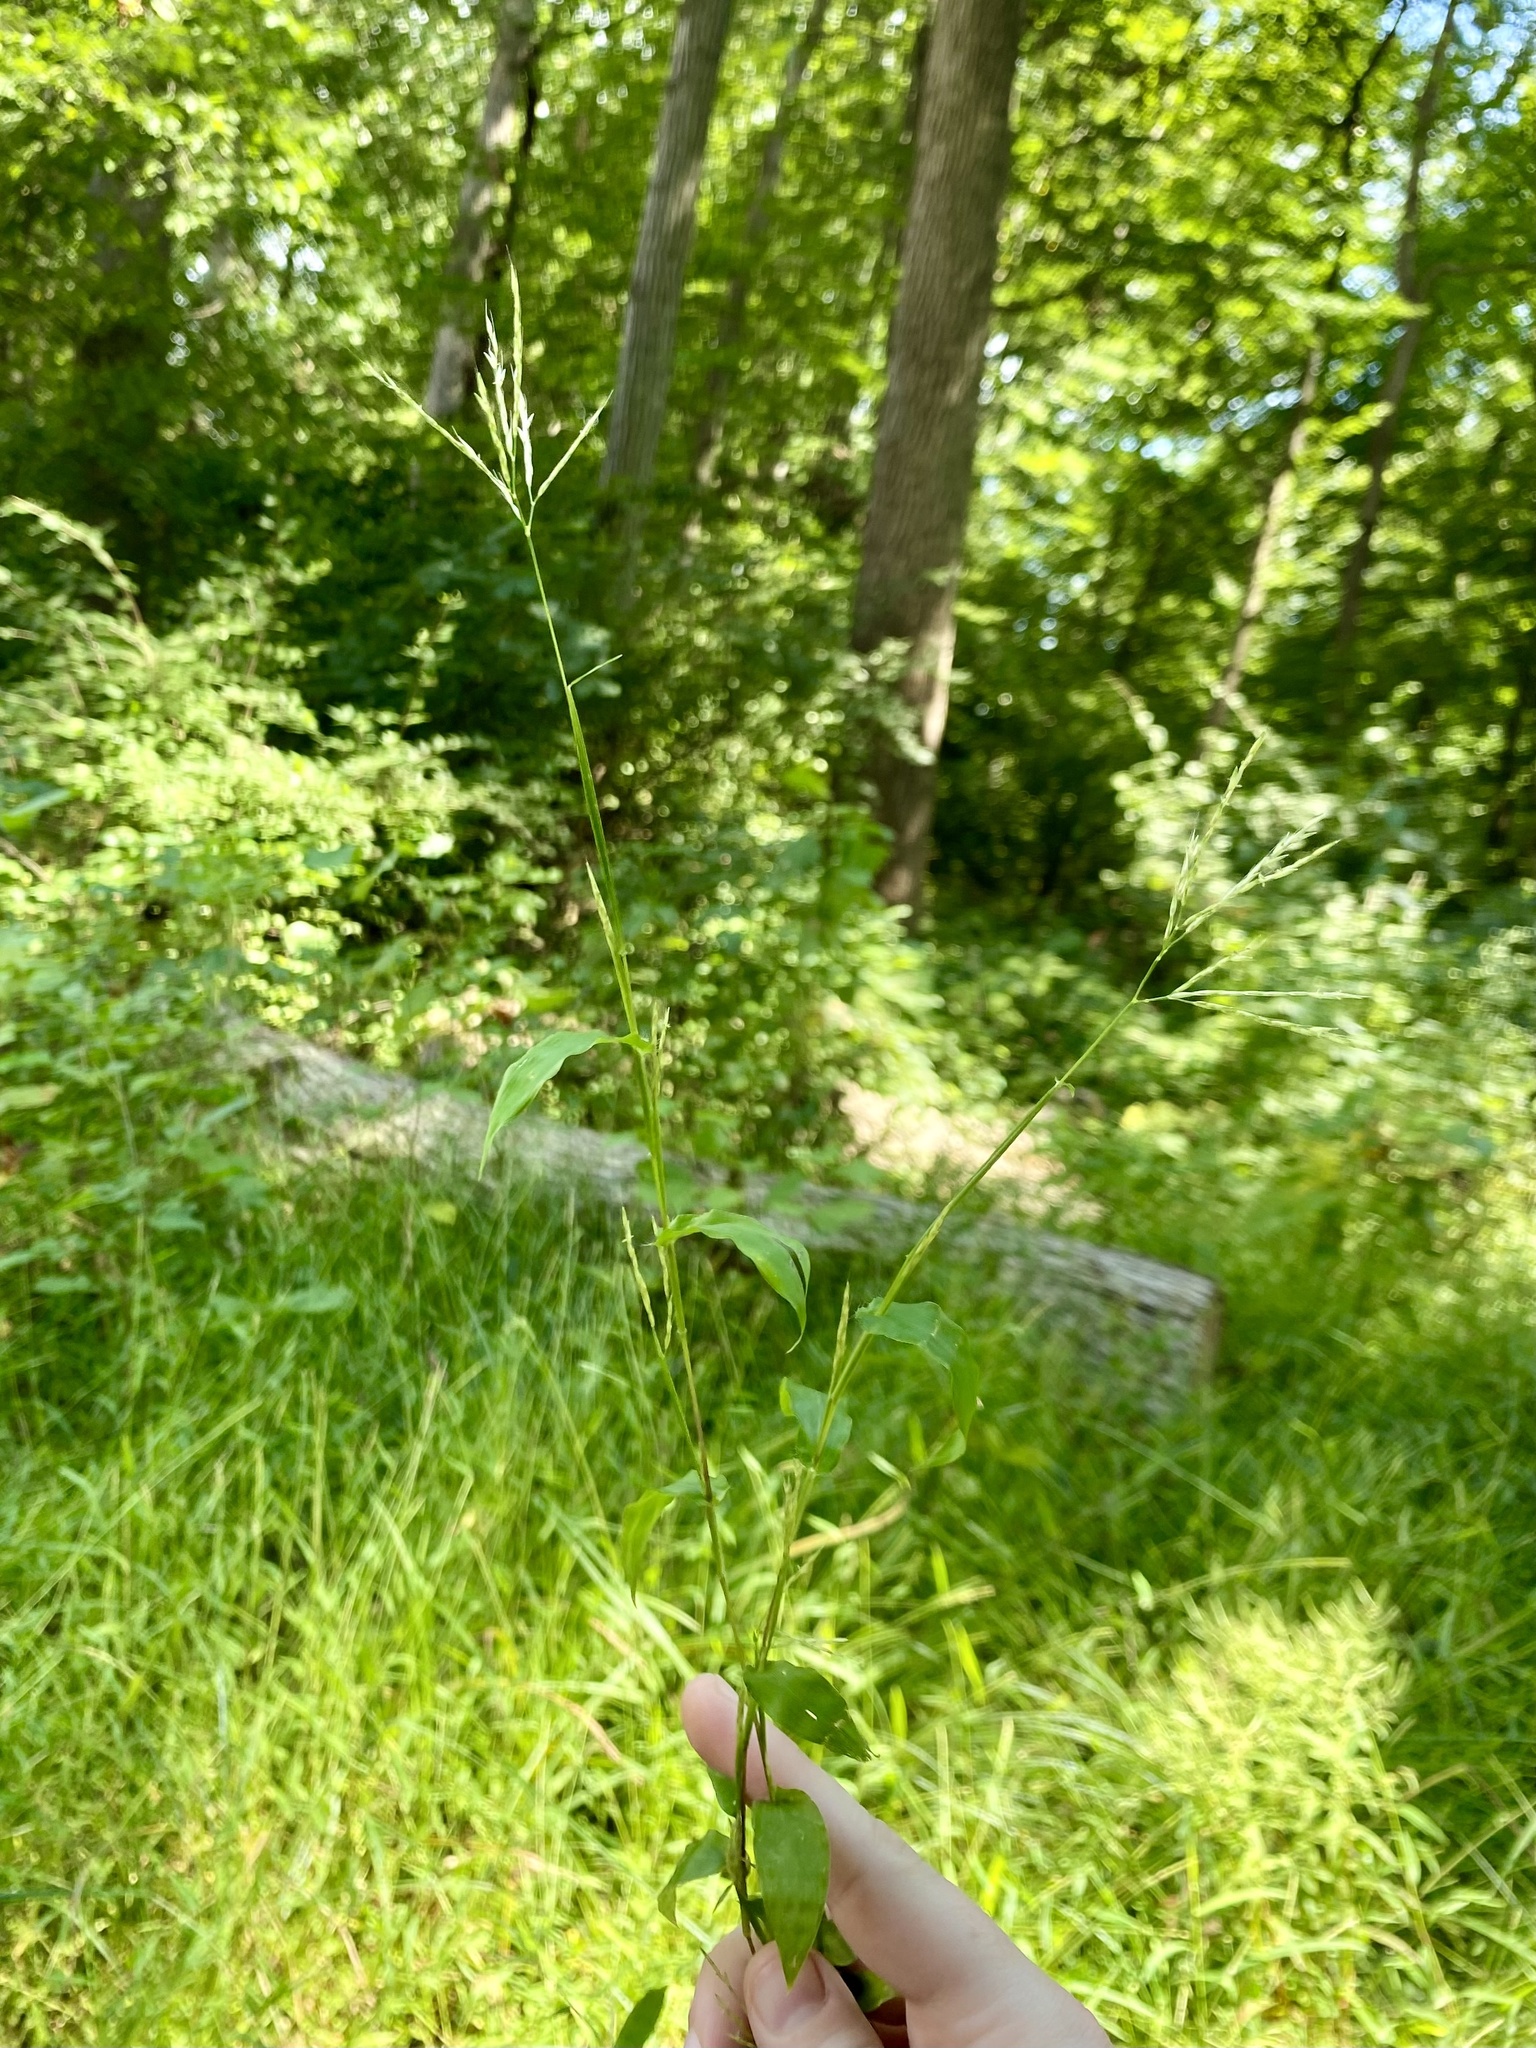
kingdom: Plantae
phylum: Tracheophyta
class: Liliopsida
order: Poales
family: Poaceae
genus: Arthraxon
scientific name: Arthraxon hispidus
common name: Small carpgrass
